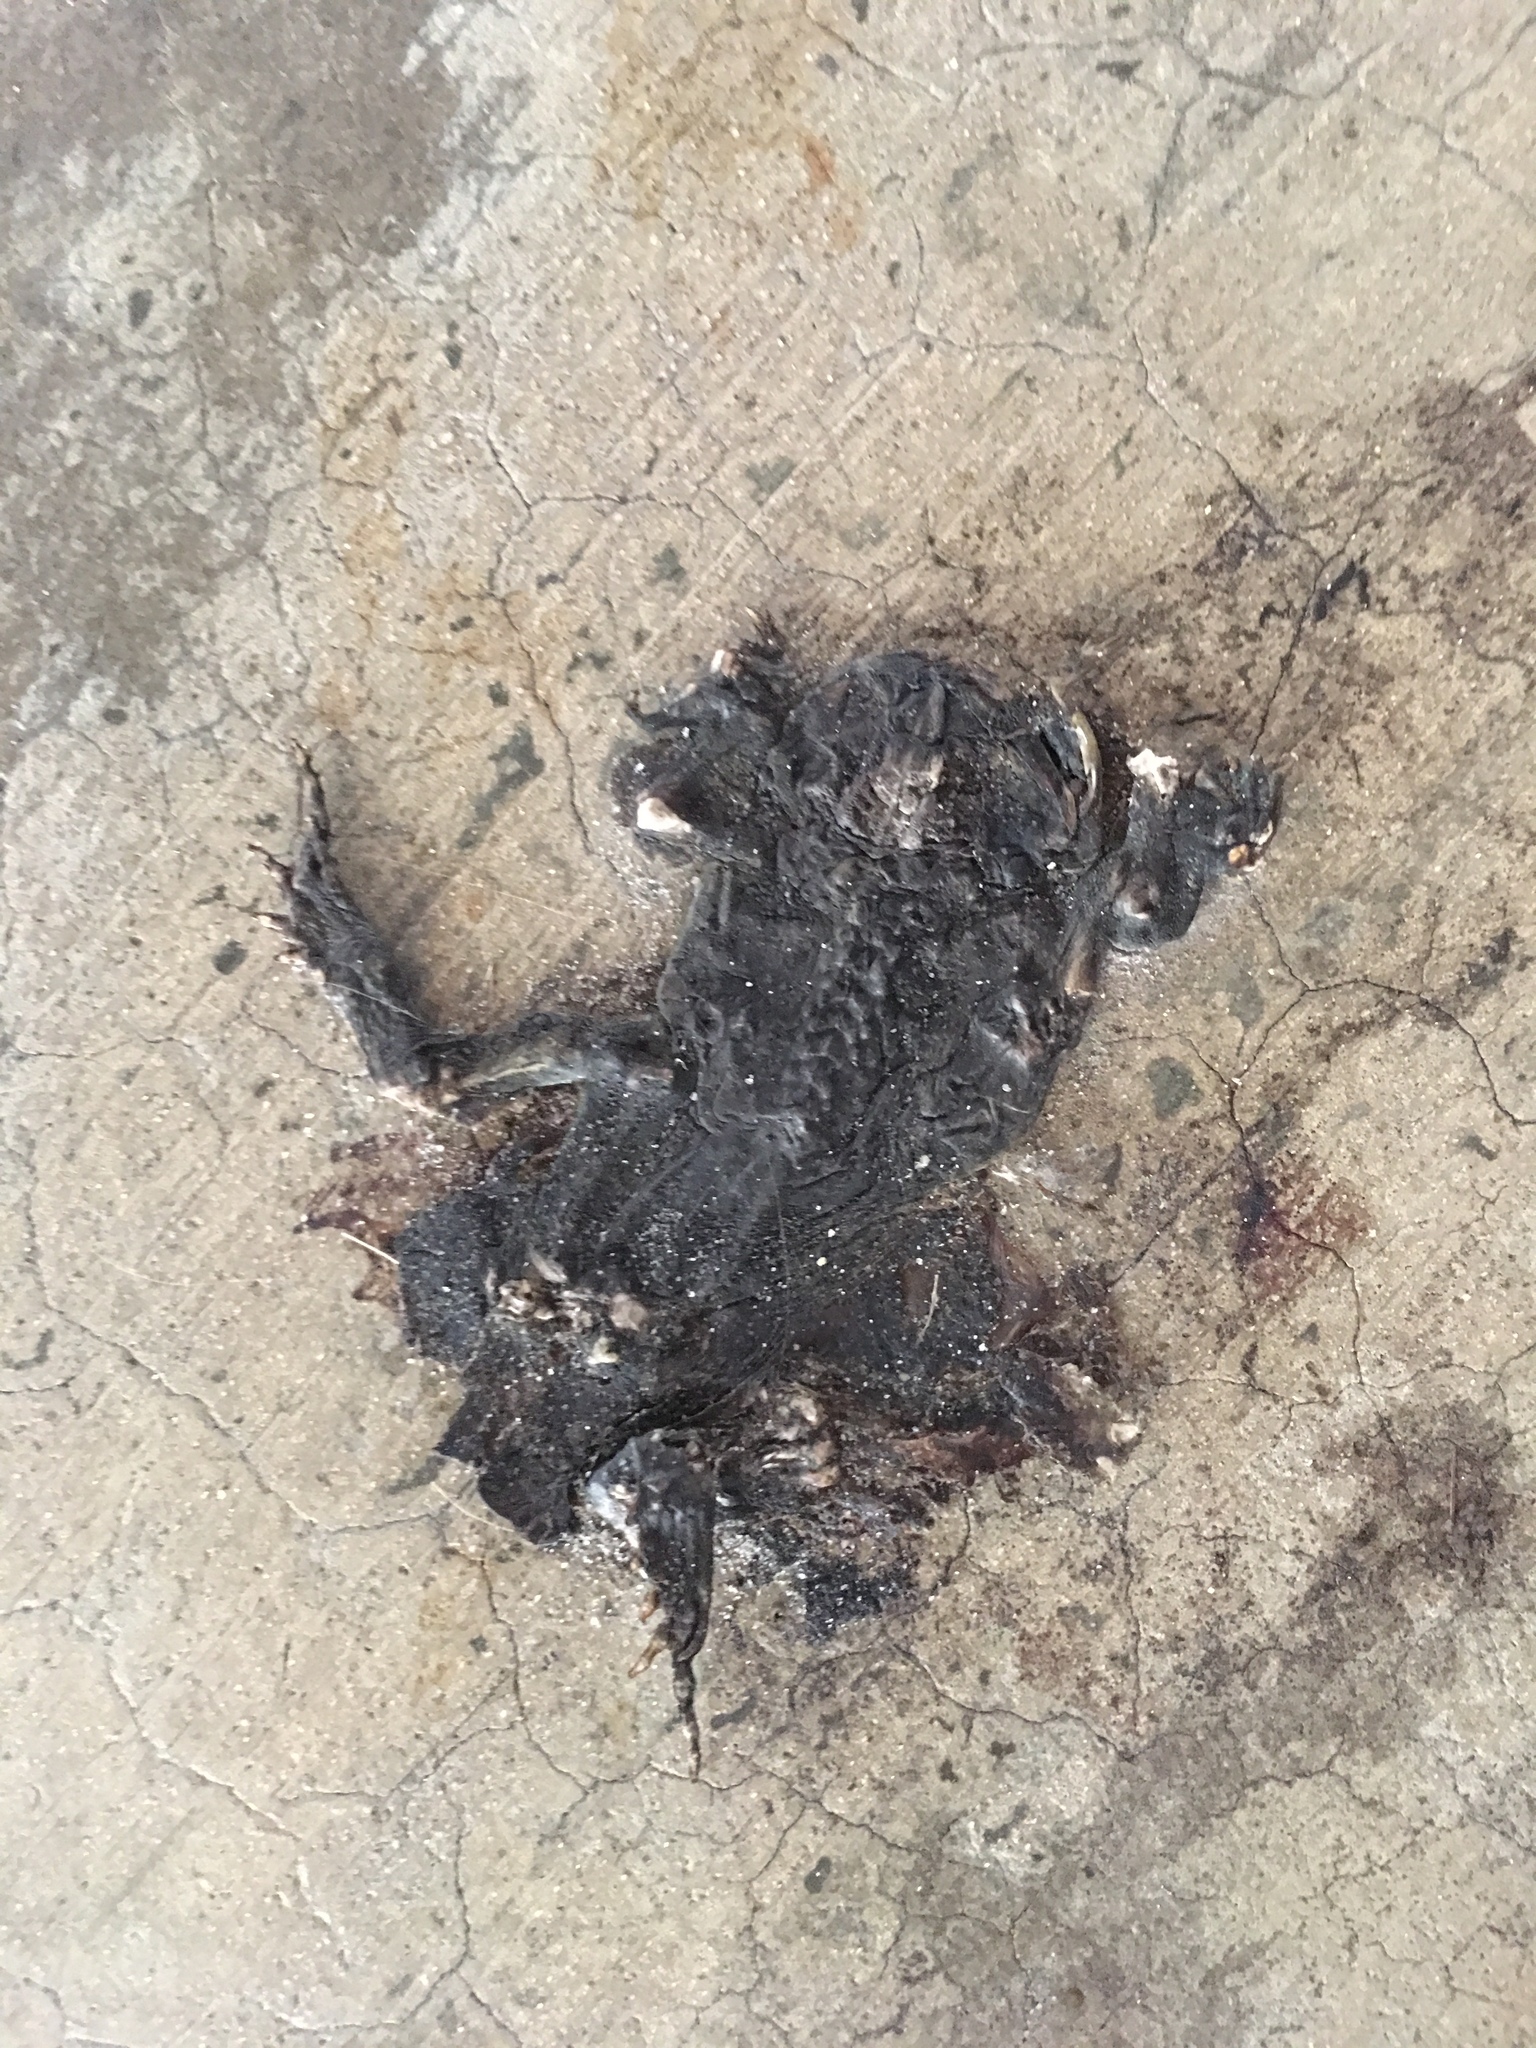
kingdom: Animalia
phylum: Chordata
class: Amphibia
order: Anura
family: Bufonidae
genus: Anaxyrus
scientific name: Anaxyrus terrestris
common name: Southern toad
